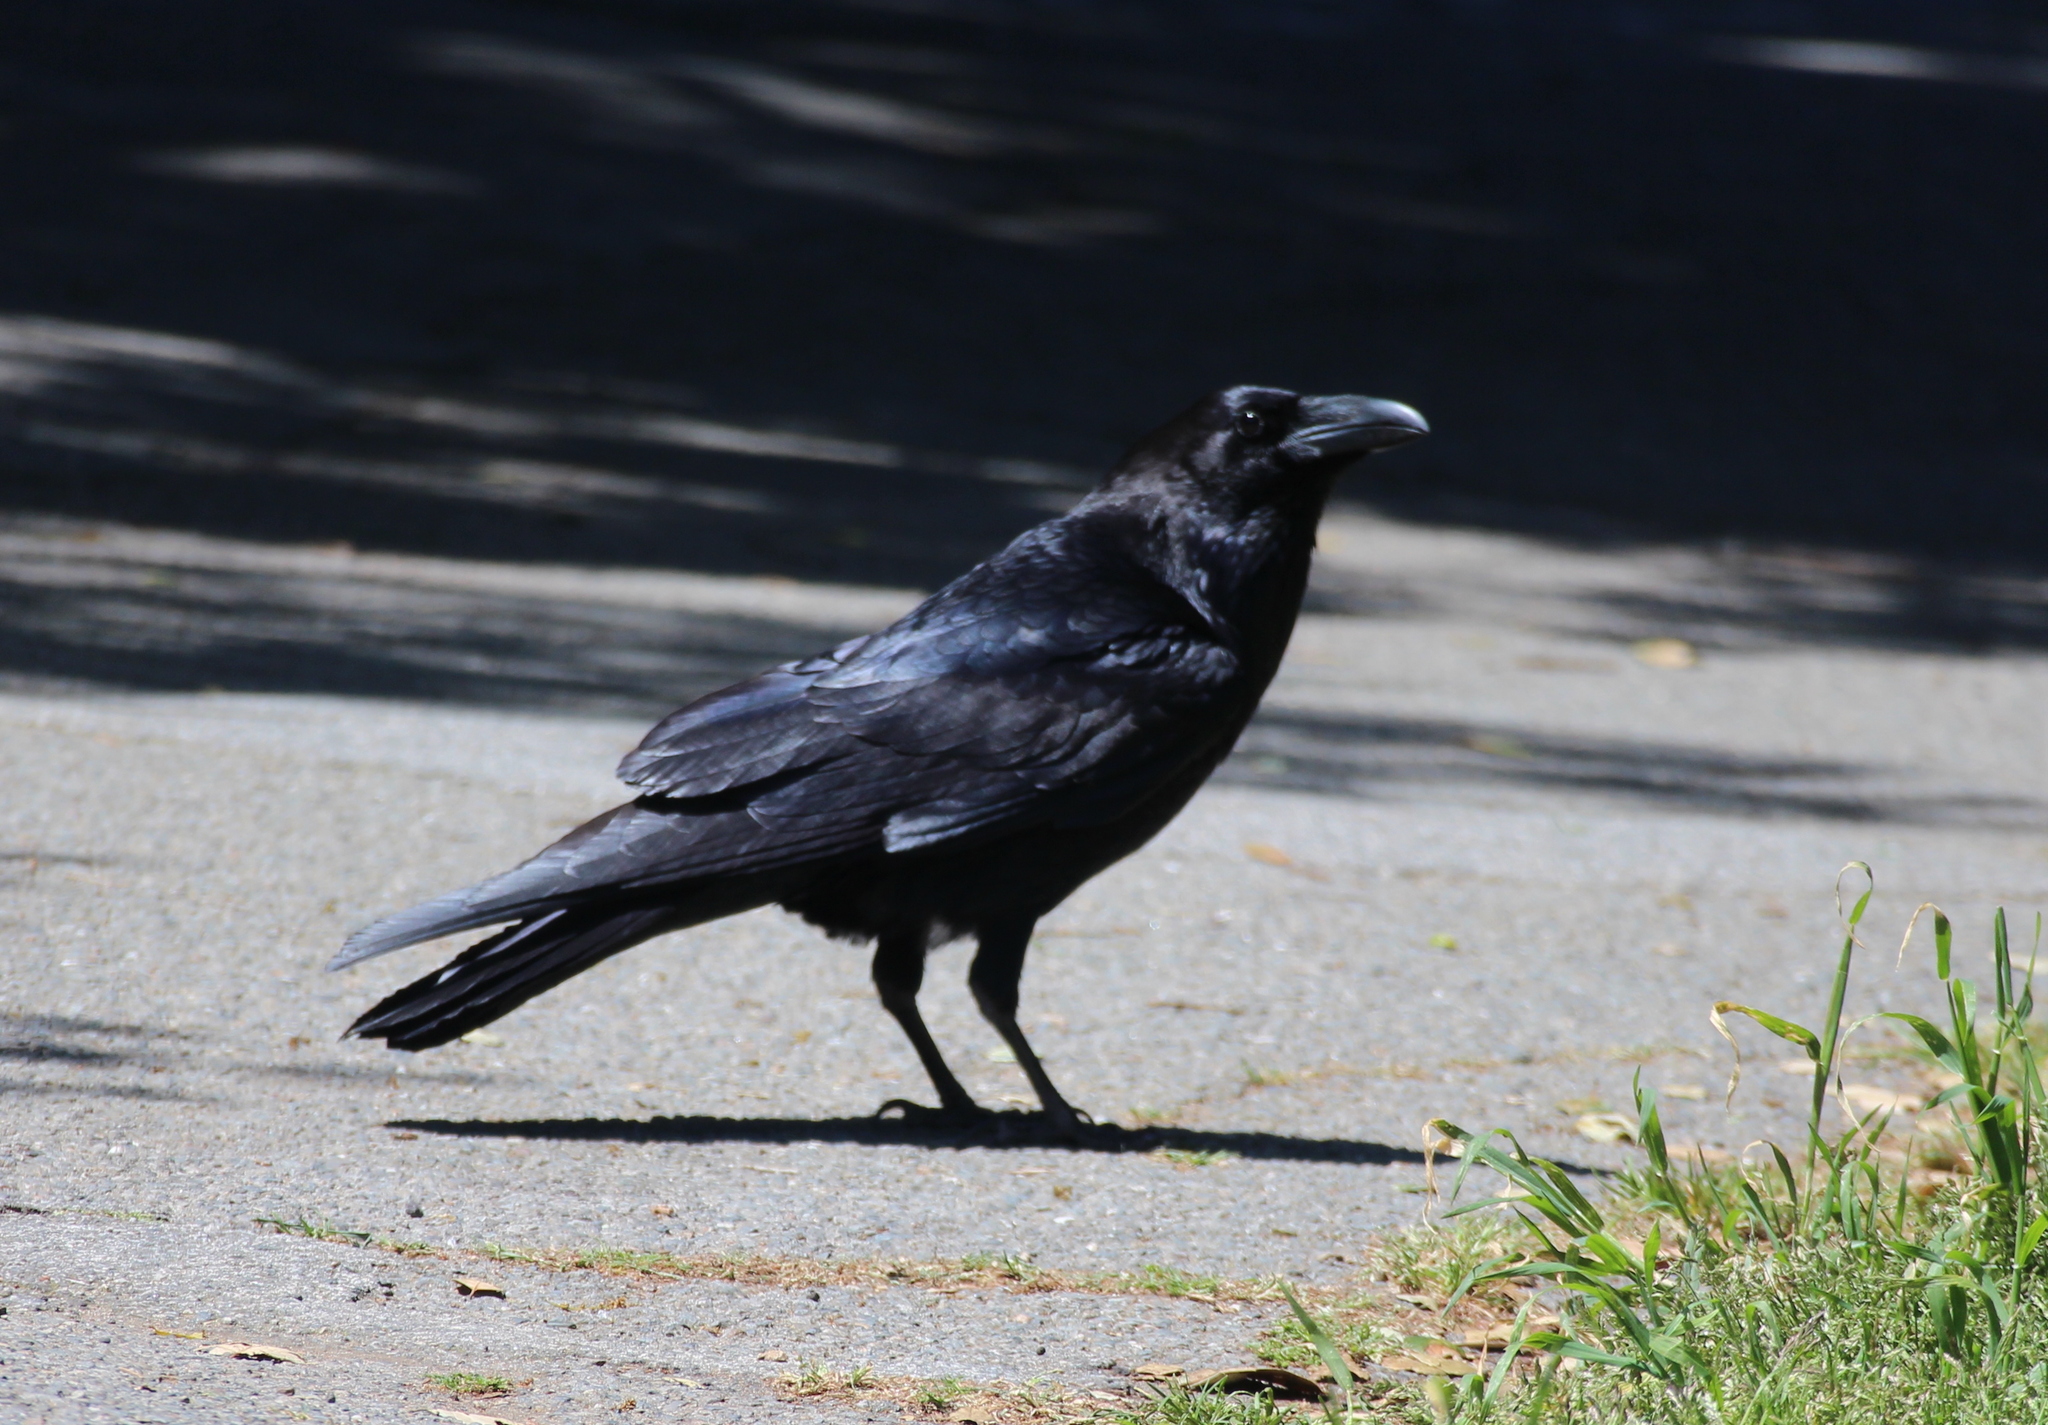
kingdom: Animalia
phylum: Chordata
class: Aves
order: Passeriformes
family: Corvidae
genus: Corvus
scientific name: Corvus corax
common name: Common raven
